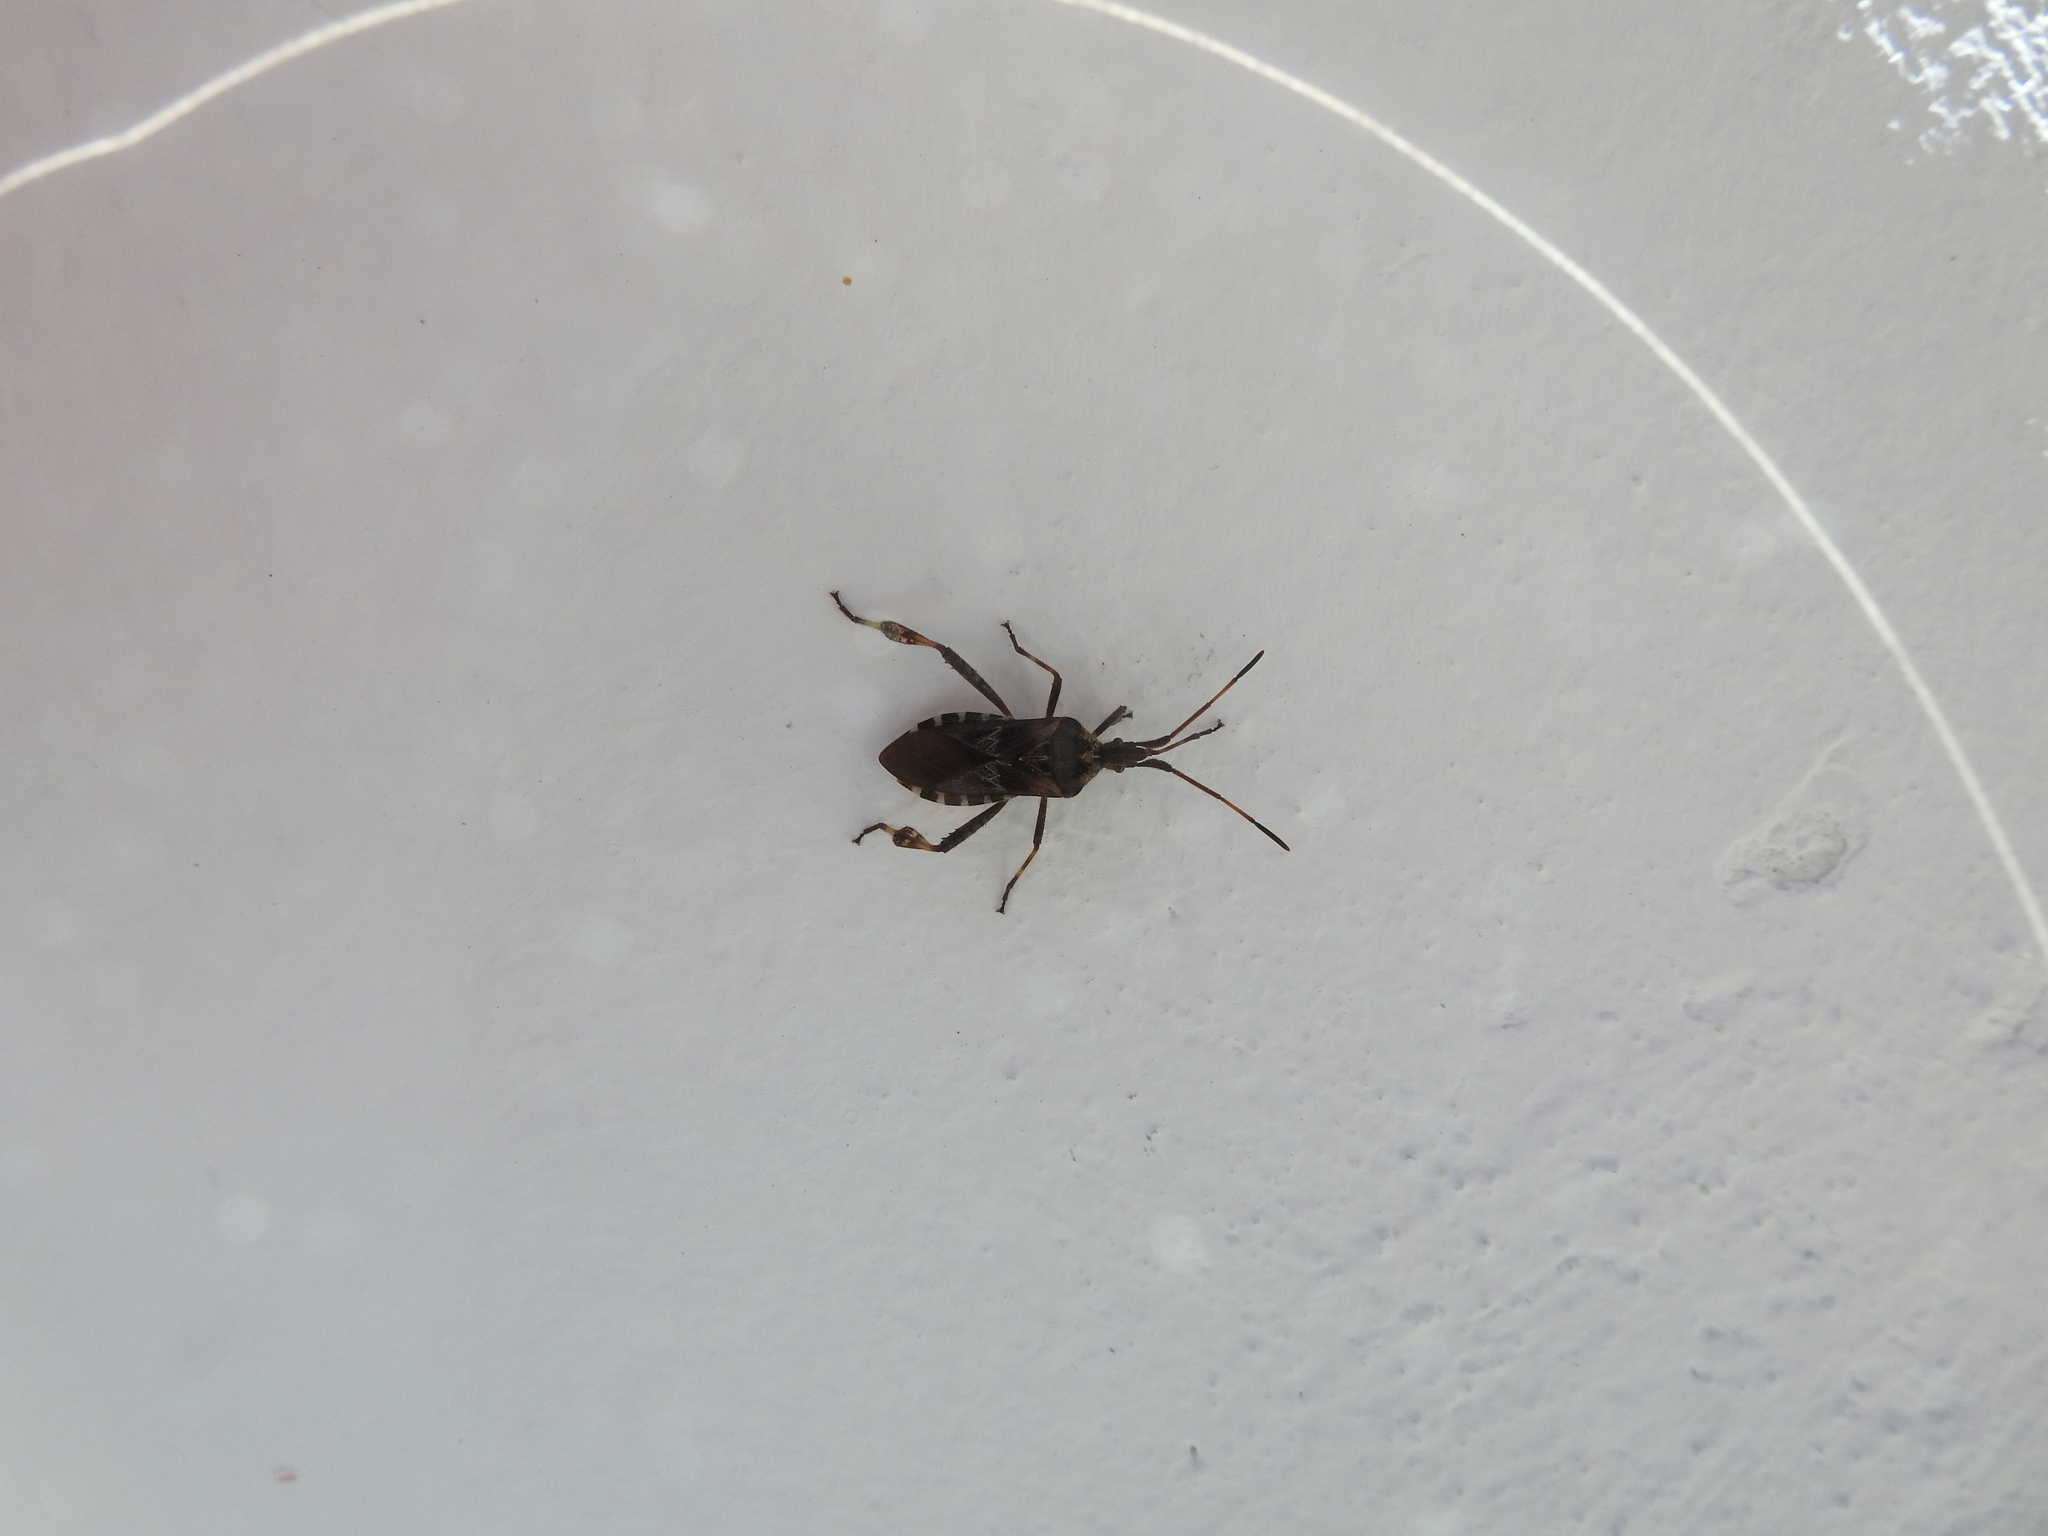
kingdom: Animalia
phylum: Arthropoda
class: Insecta
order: Hemiptera
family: Coreidae
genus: Leptoglossus
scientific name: Leptoglossus occidentalis
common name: Western conifer-seed bug
